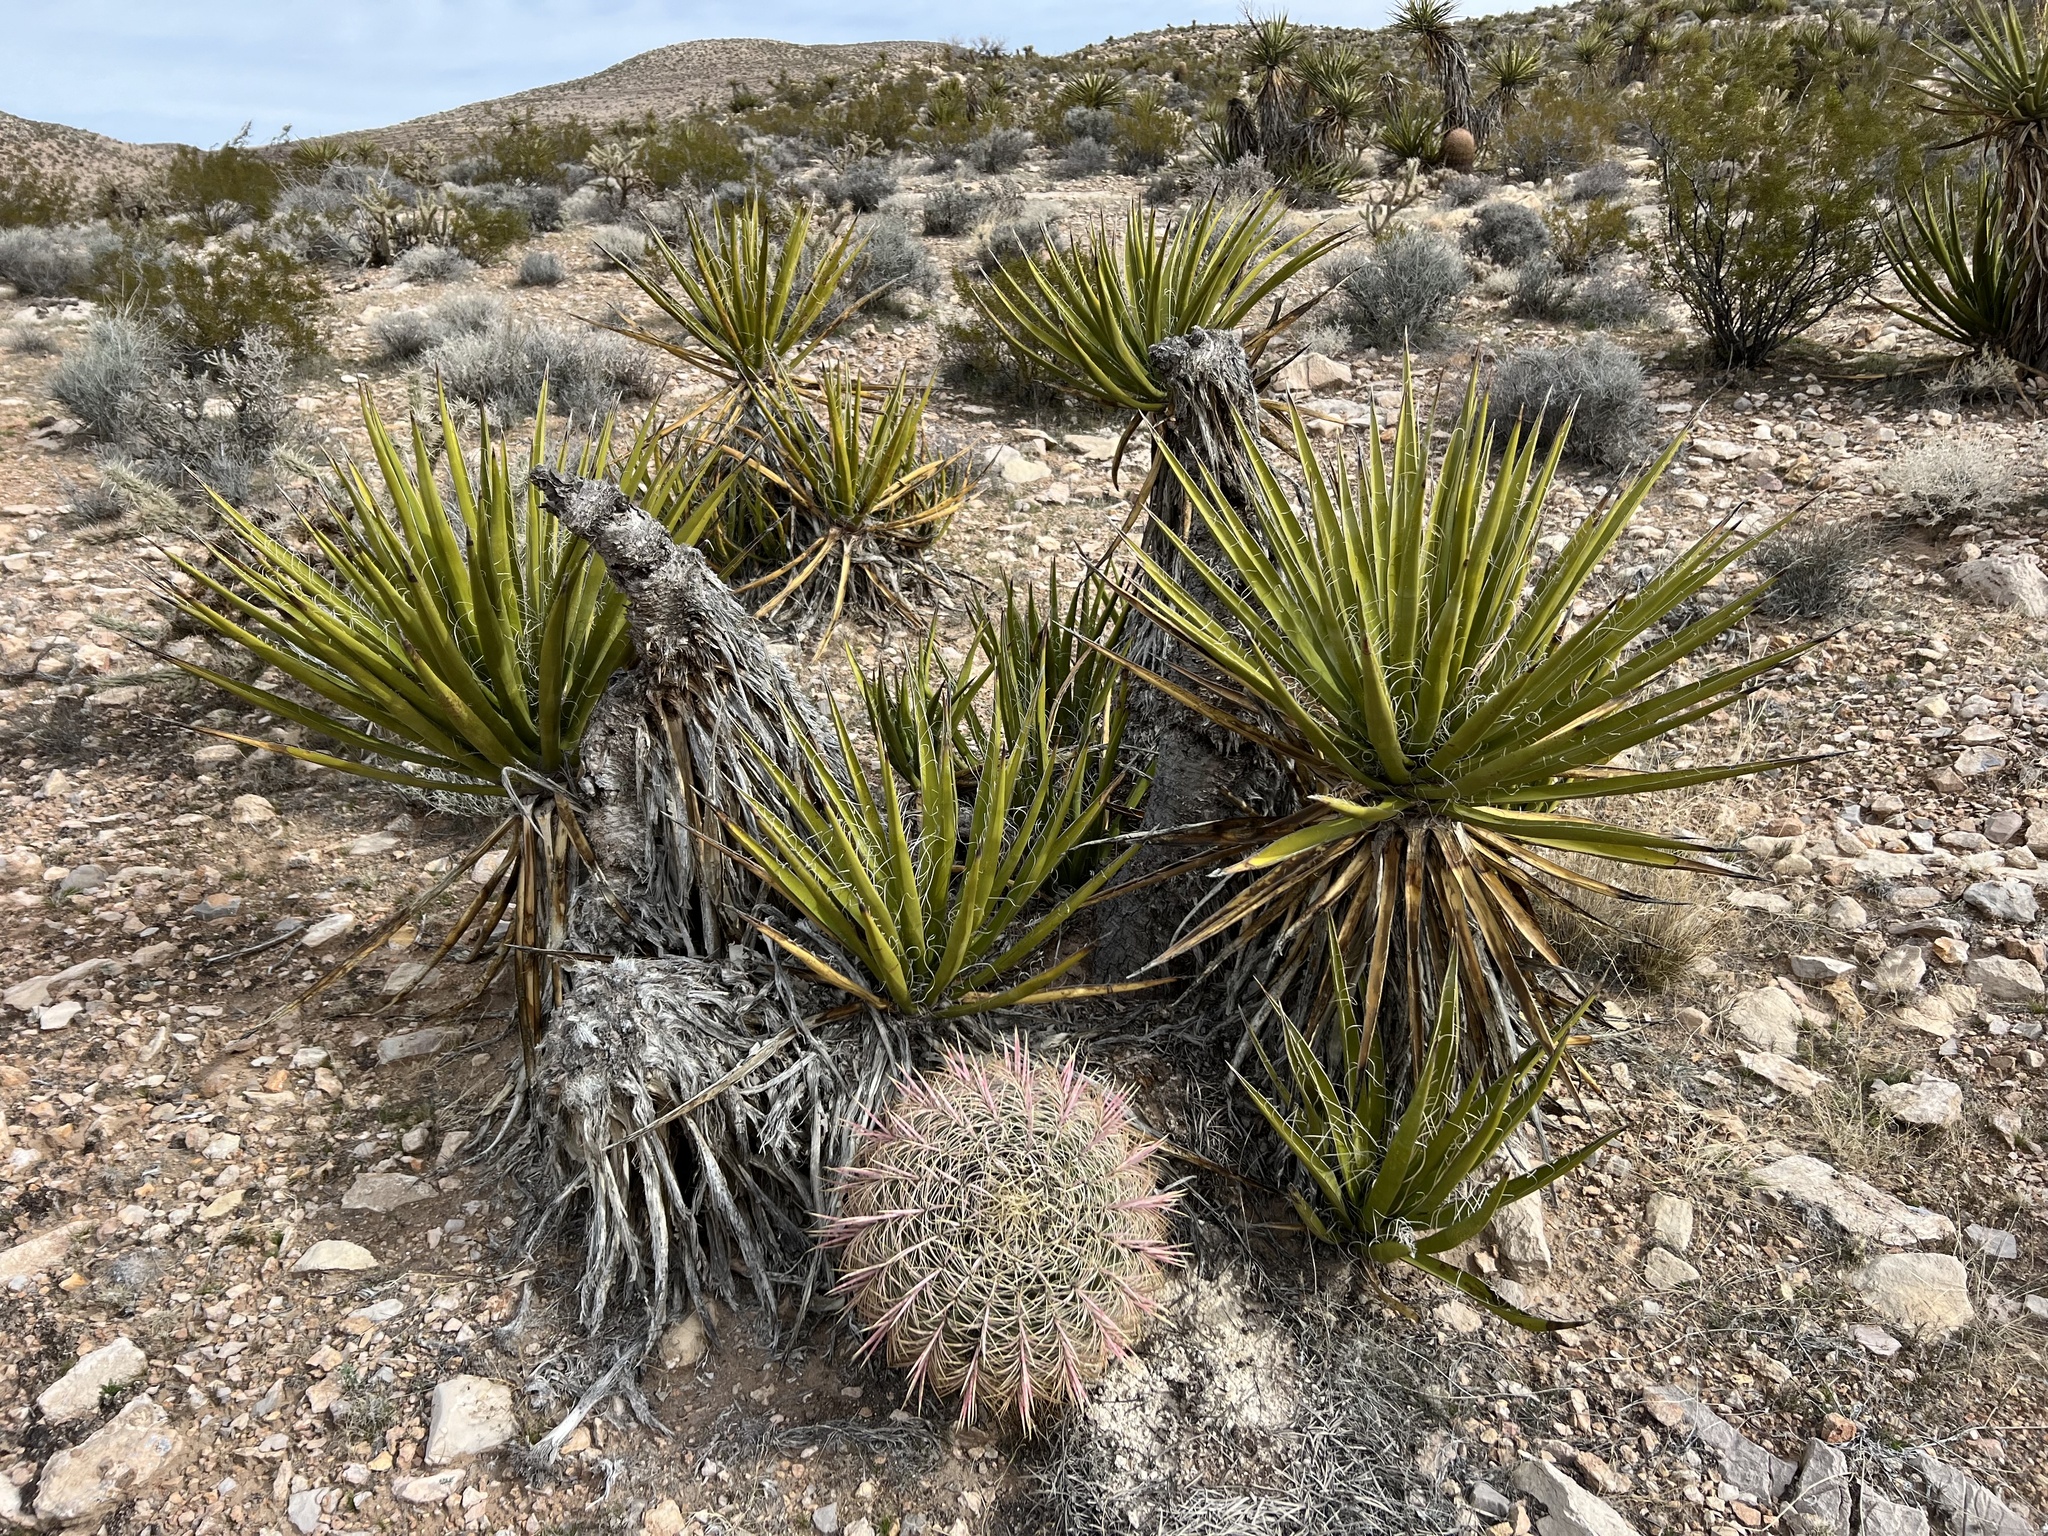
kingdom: Plantae
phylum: Tracheophyta
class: Liliopsida
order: Asparagales
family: Asparagaceae
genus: Yucca
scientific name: Yucca schidigera
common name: Mojave yucca
